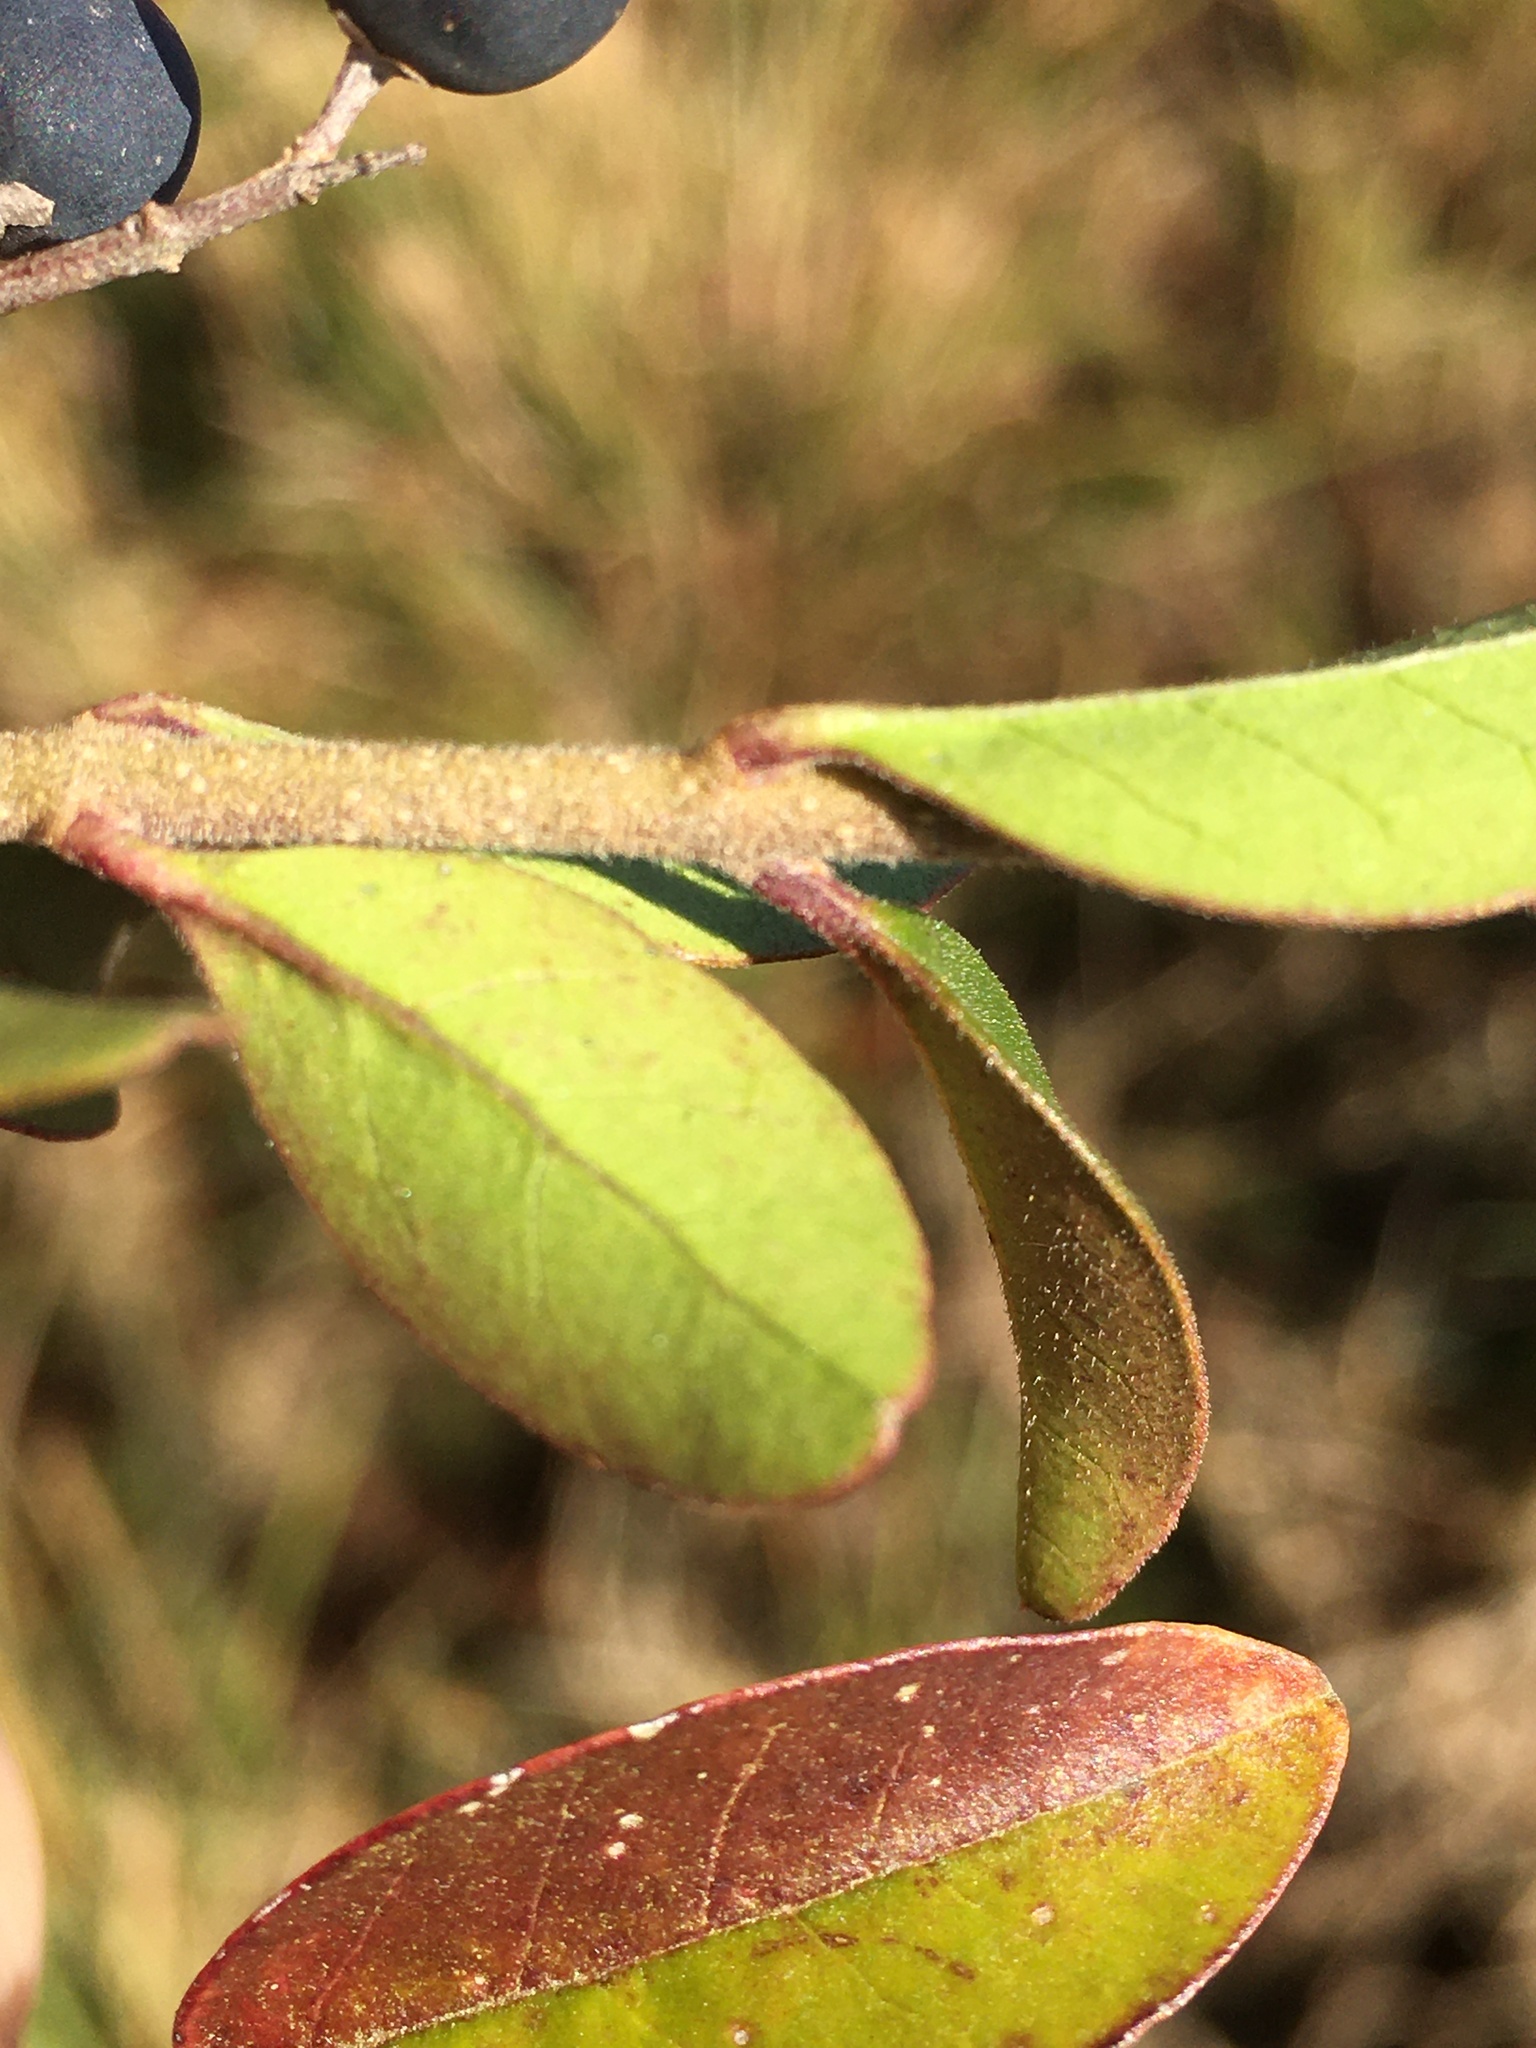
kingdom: Plantae
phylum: Tracheophyta
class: Magnoliopsida
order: Lamiales
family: Oleaceae
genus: Ligustrum
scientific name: Ligustrum sinense
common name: Chinese privet
